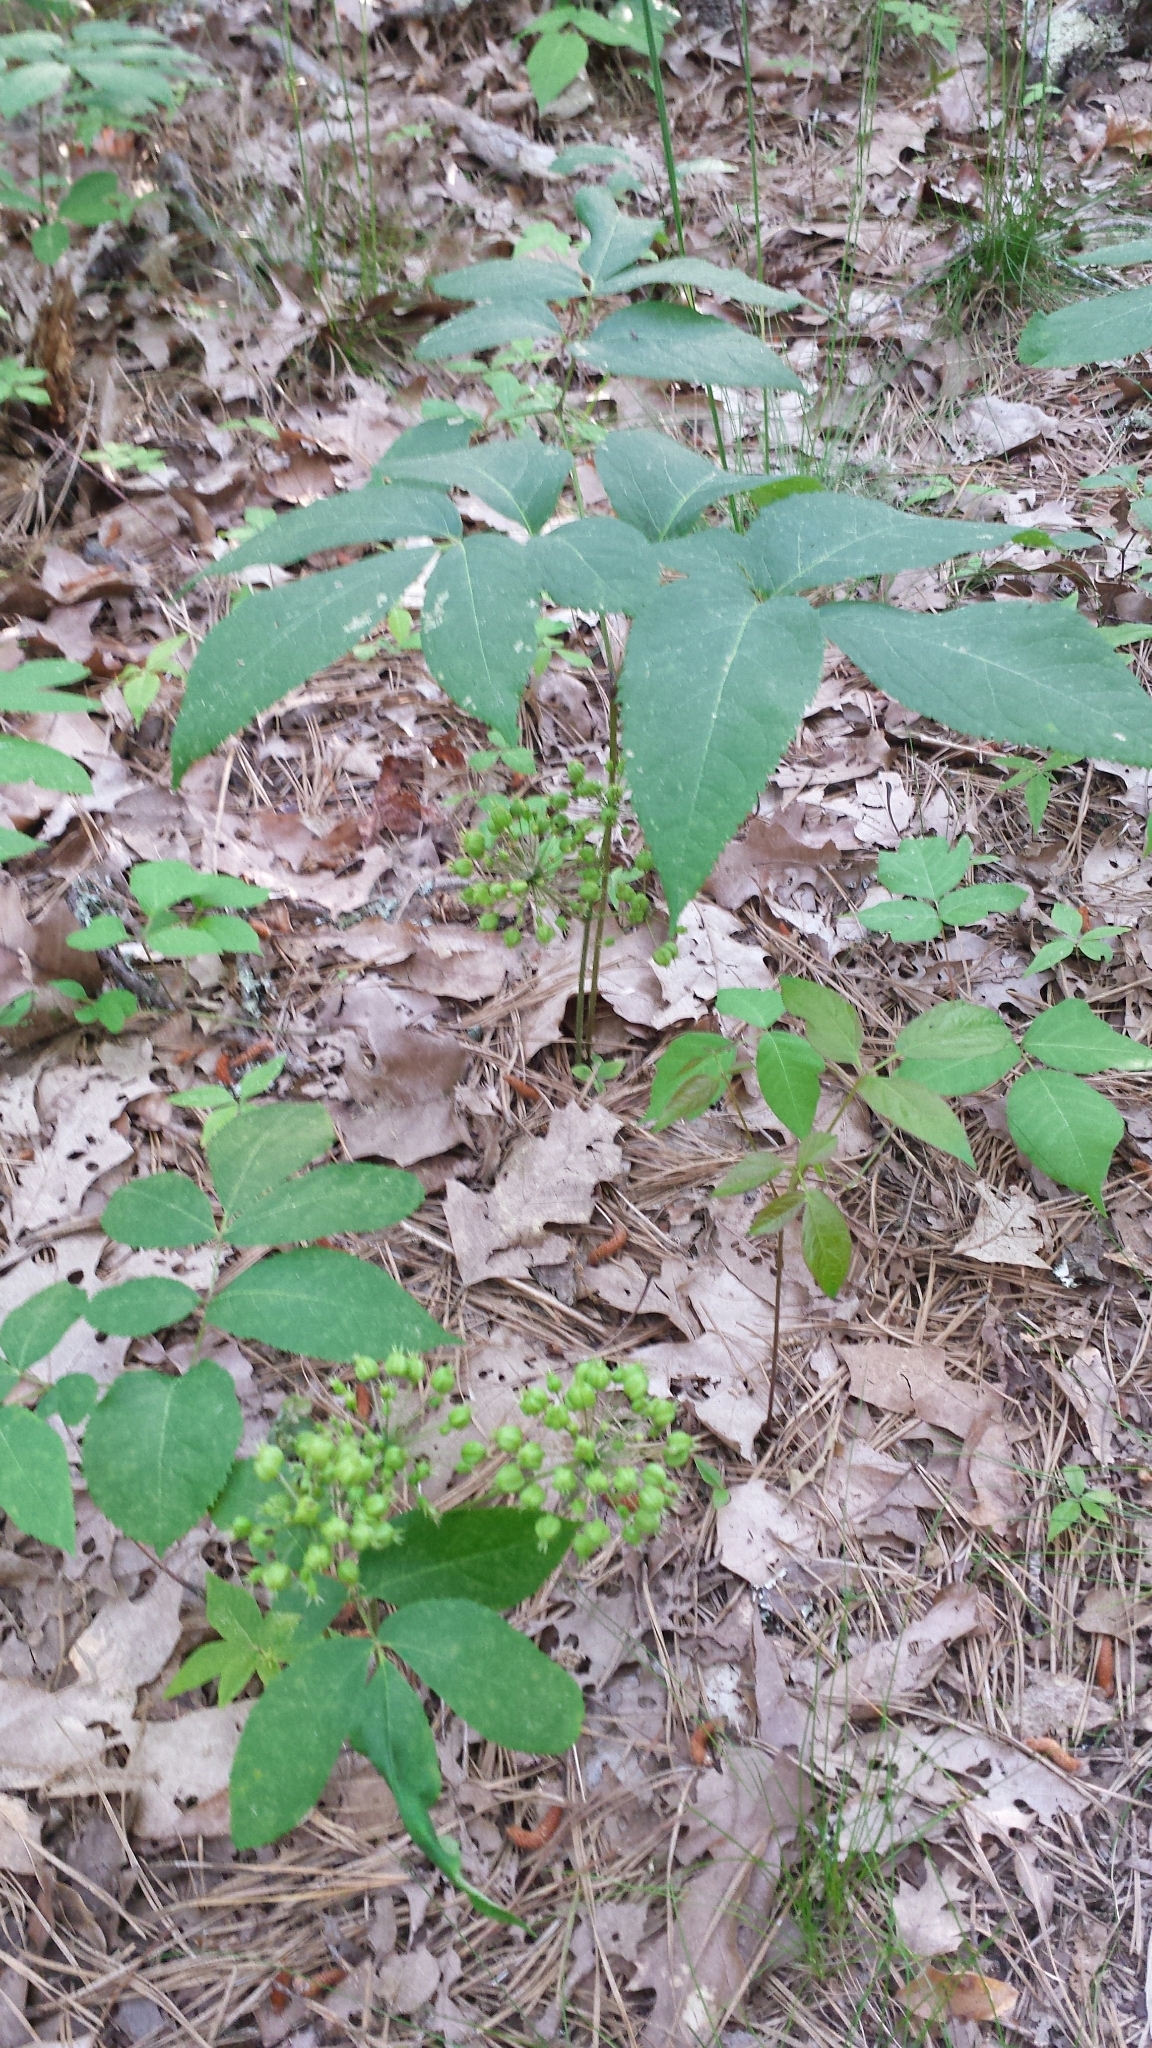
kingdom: Plantae
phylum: Tracheophyta
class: Magnoliopsida
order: Apiales
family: Araliaceae
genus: Aralia
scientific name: Aralia nudicaulis
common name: Wild sarsaparilla
